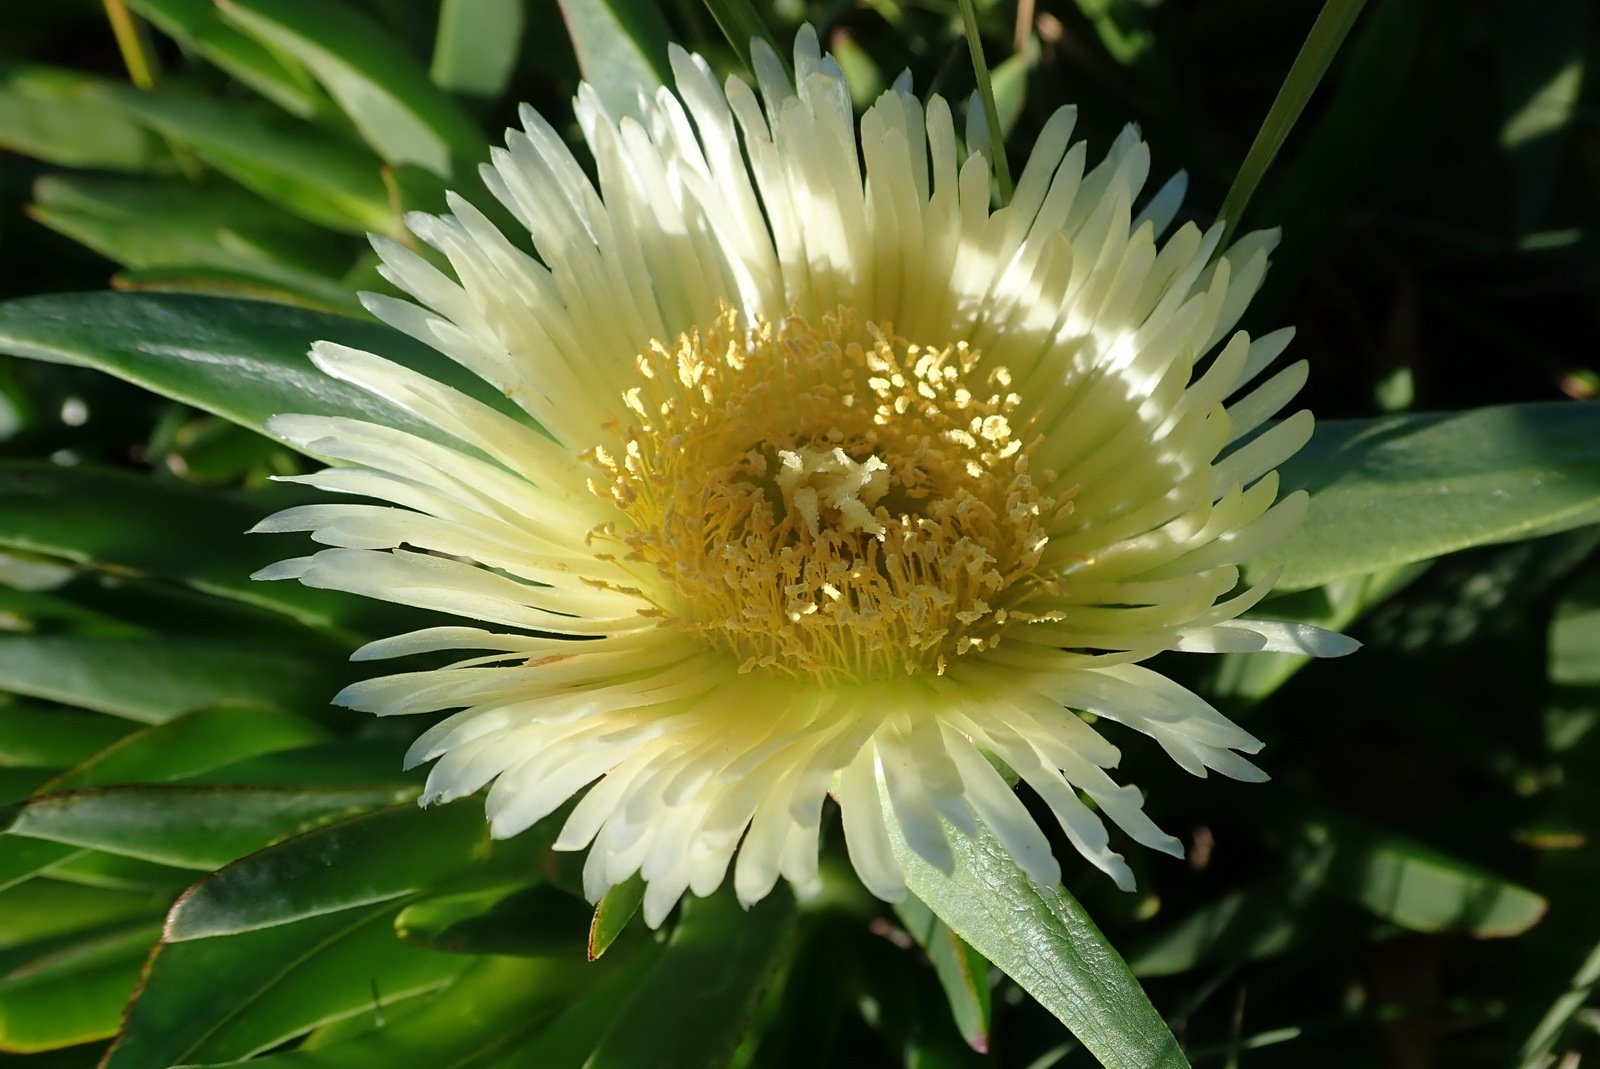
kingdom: Plantae
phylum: Tracheophyta
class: Magnoliopsida
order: Caryophyllales
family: Aizoaceae
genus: Carpobrotus
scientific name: Carpobrotus edulis
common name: Hottentot-fig
